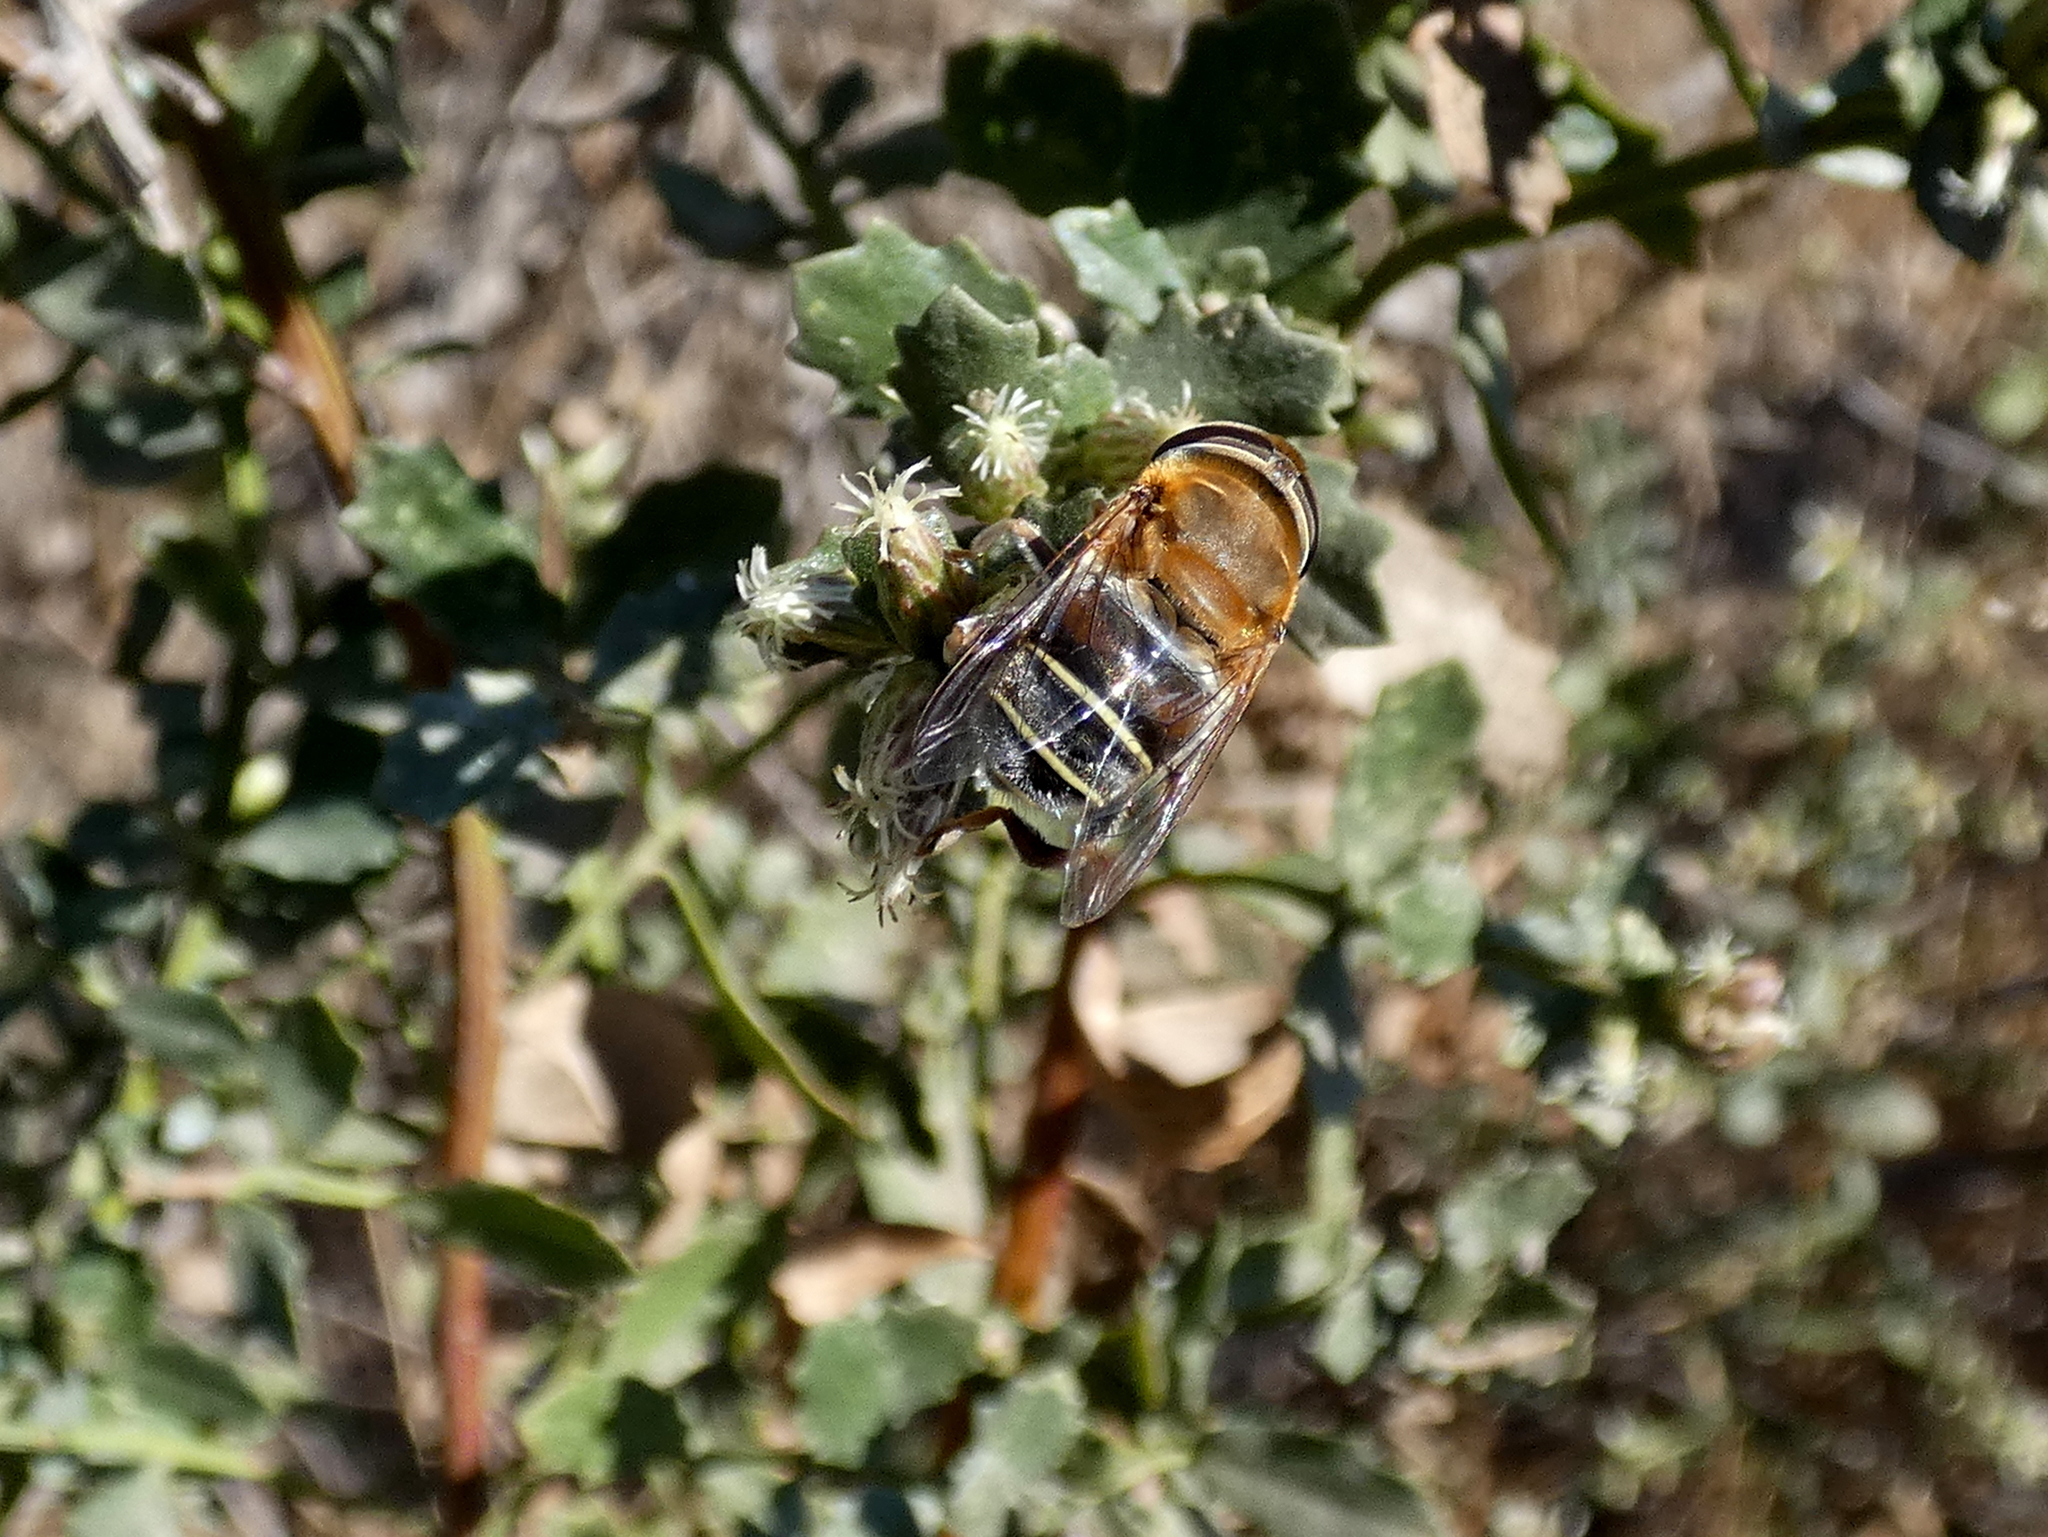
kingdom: Animalia
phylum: Arthropoda
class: Insecta
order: Diptera
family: Syrphidae
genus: Palpada
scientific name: Palpada mexicana
